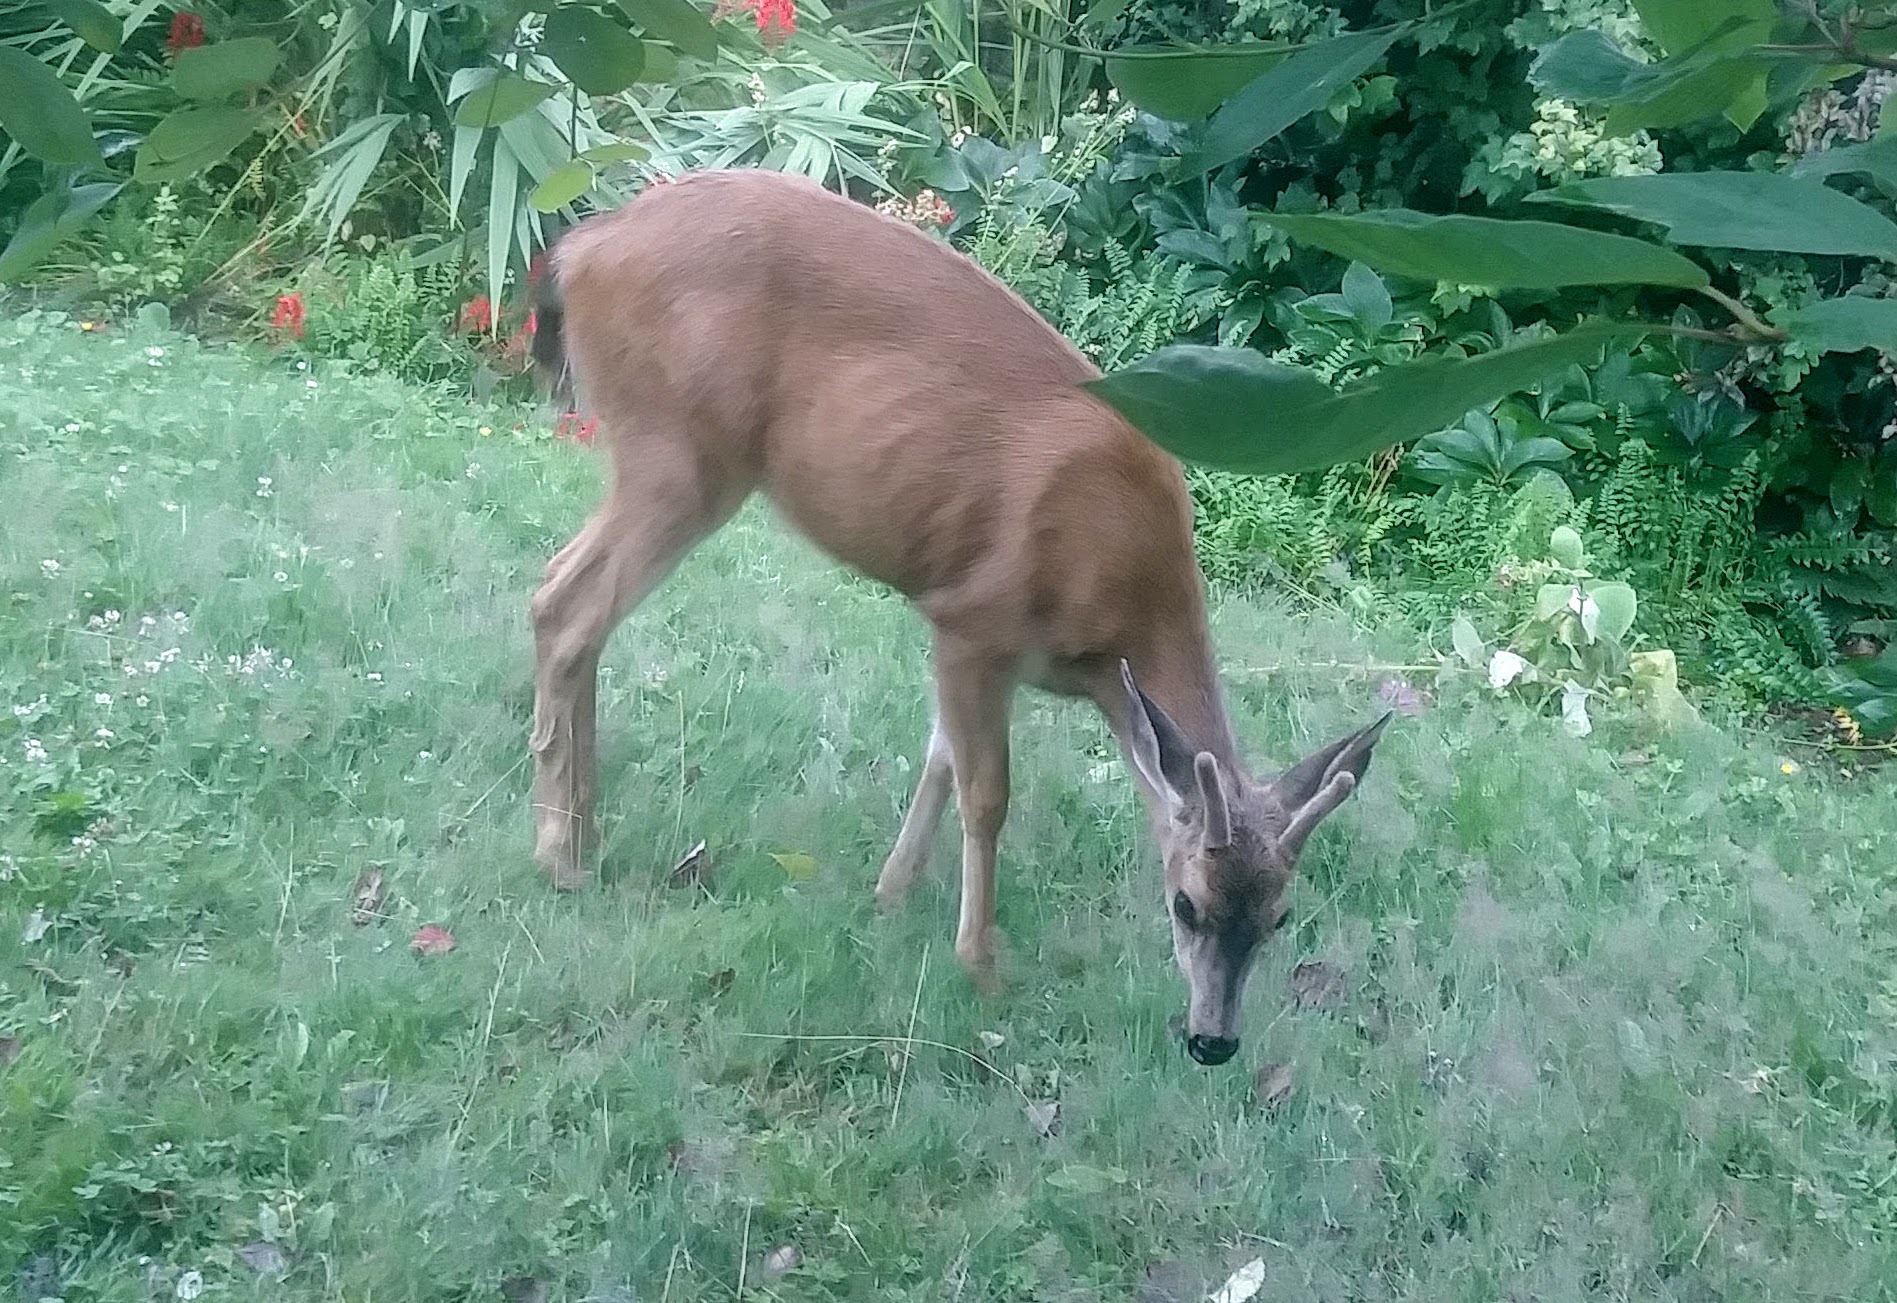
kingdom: Animalia
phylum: Chordata
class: Mammalia
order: Artiodactyla
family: Cervidae
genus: Odocoileus
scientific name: Odocoileus hemionus
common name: Mule deer
